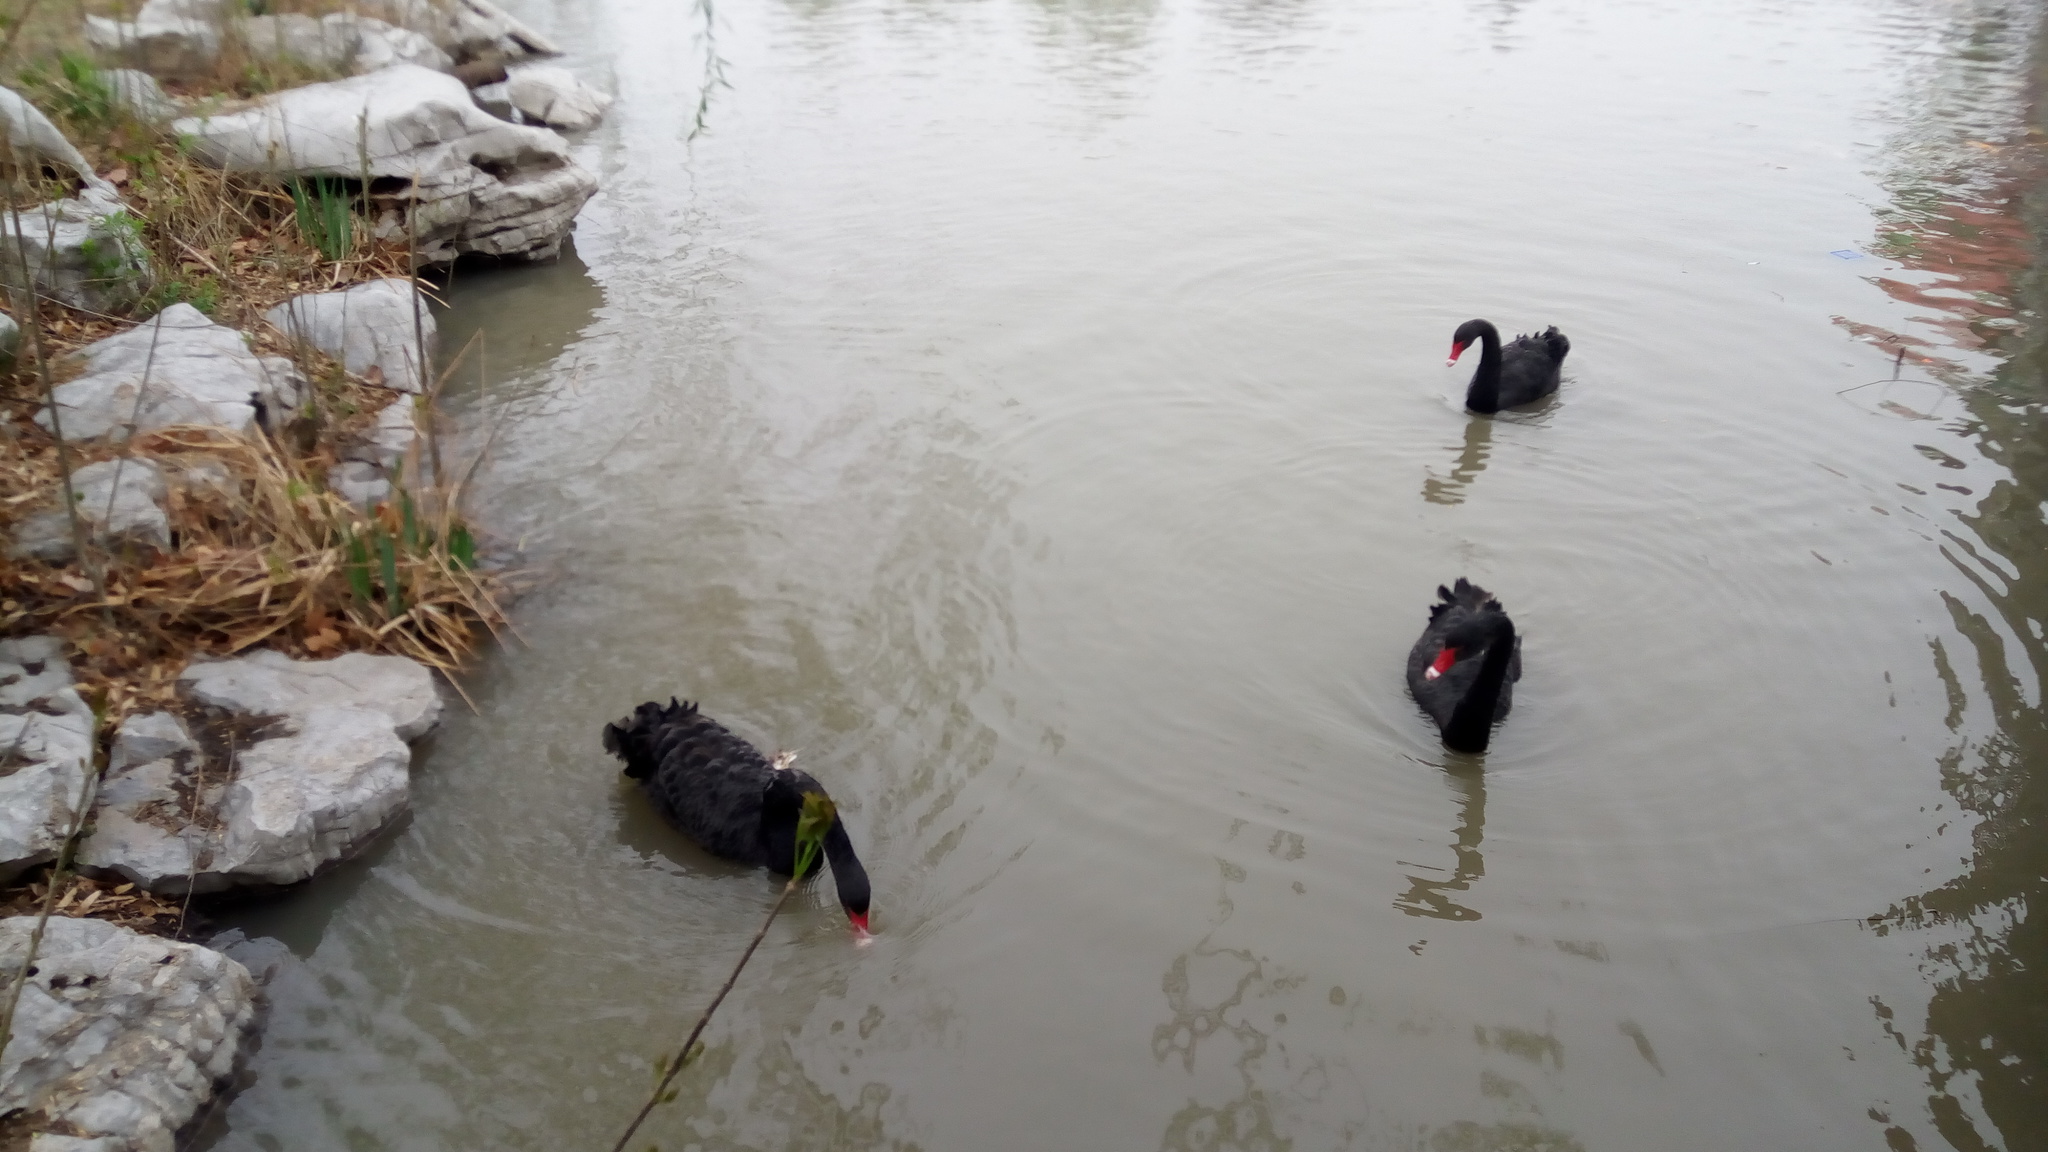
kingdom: Animalia
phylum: Chordata
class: Aves
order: Anseriformes
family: Anatidae
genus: Cygnus
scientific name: Cygnus atratus
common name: Black swan
